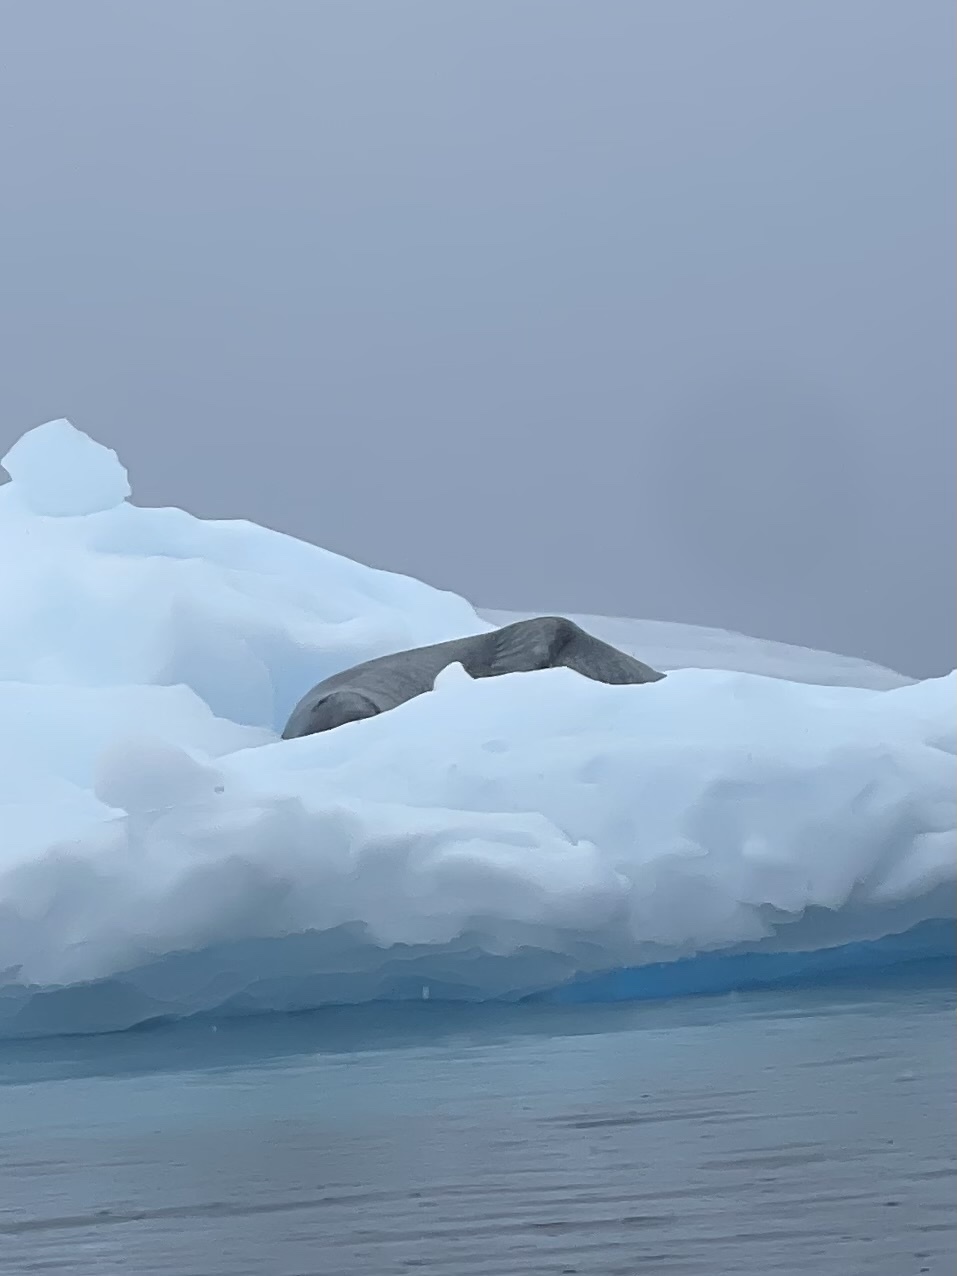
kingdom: Animalia
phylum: Chordata
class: Mammalia
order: Carnivora
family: Phocidae
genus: Hydrurga
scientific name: Hydrurga leptonyx
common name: Leopard seal
